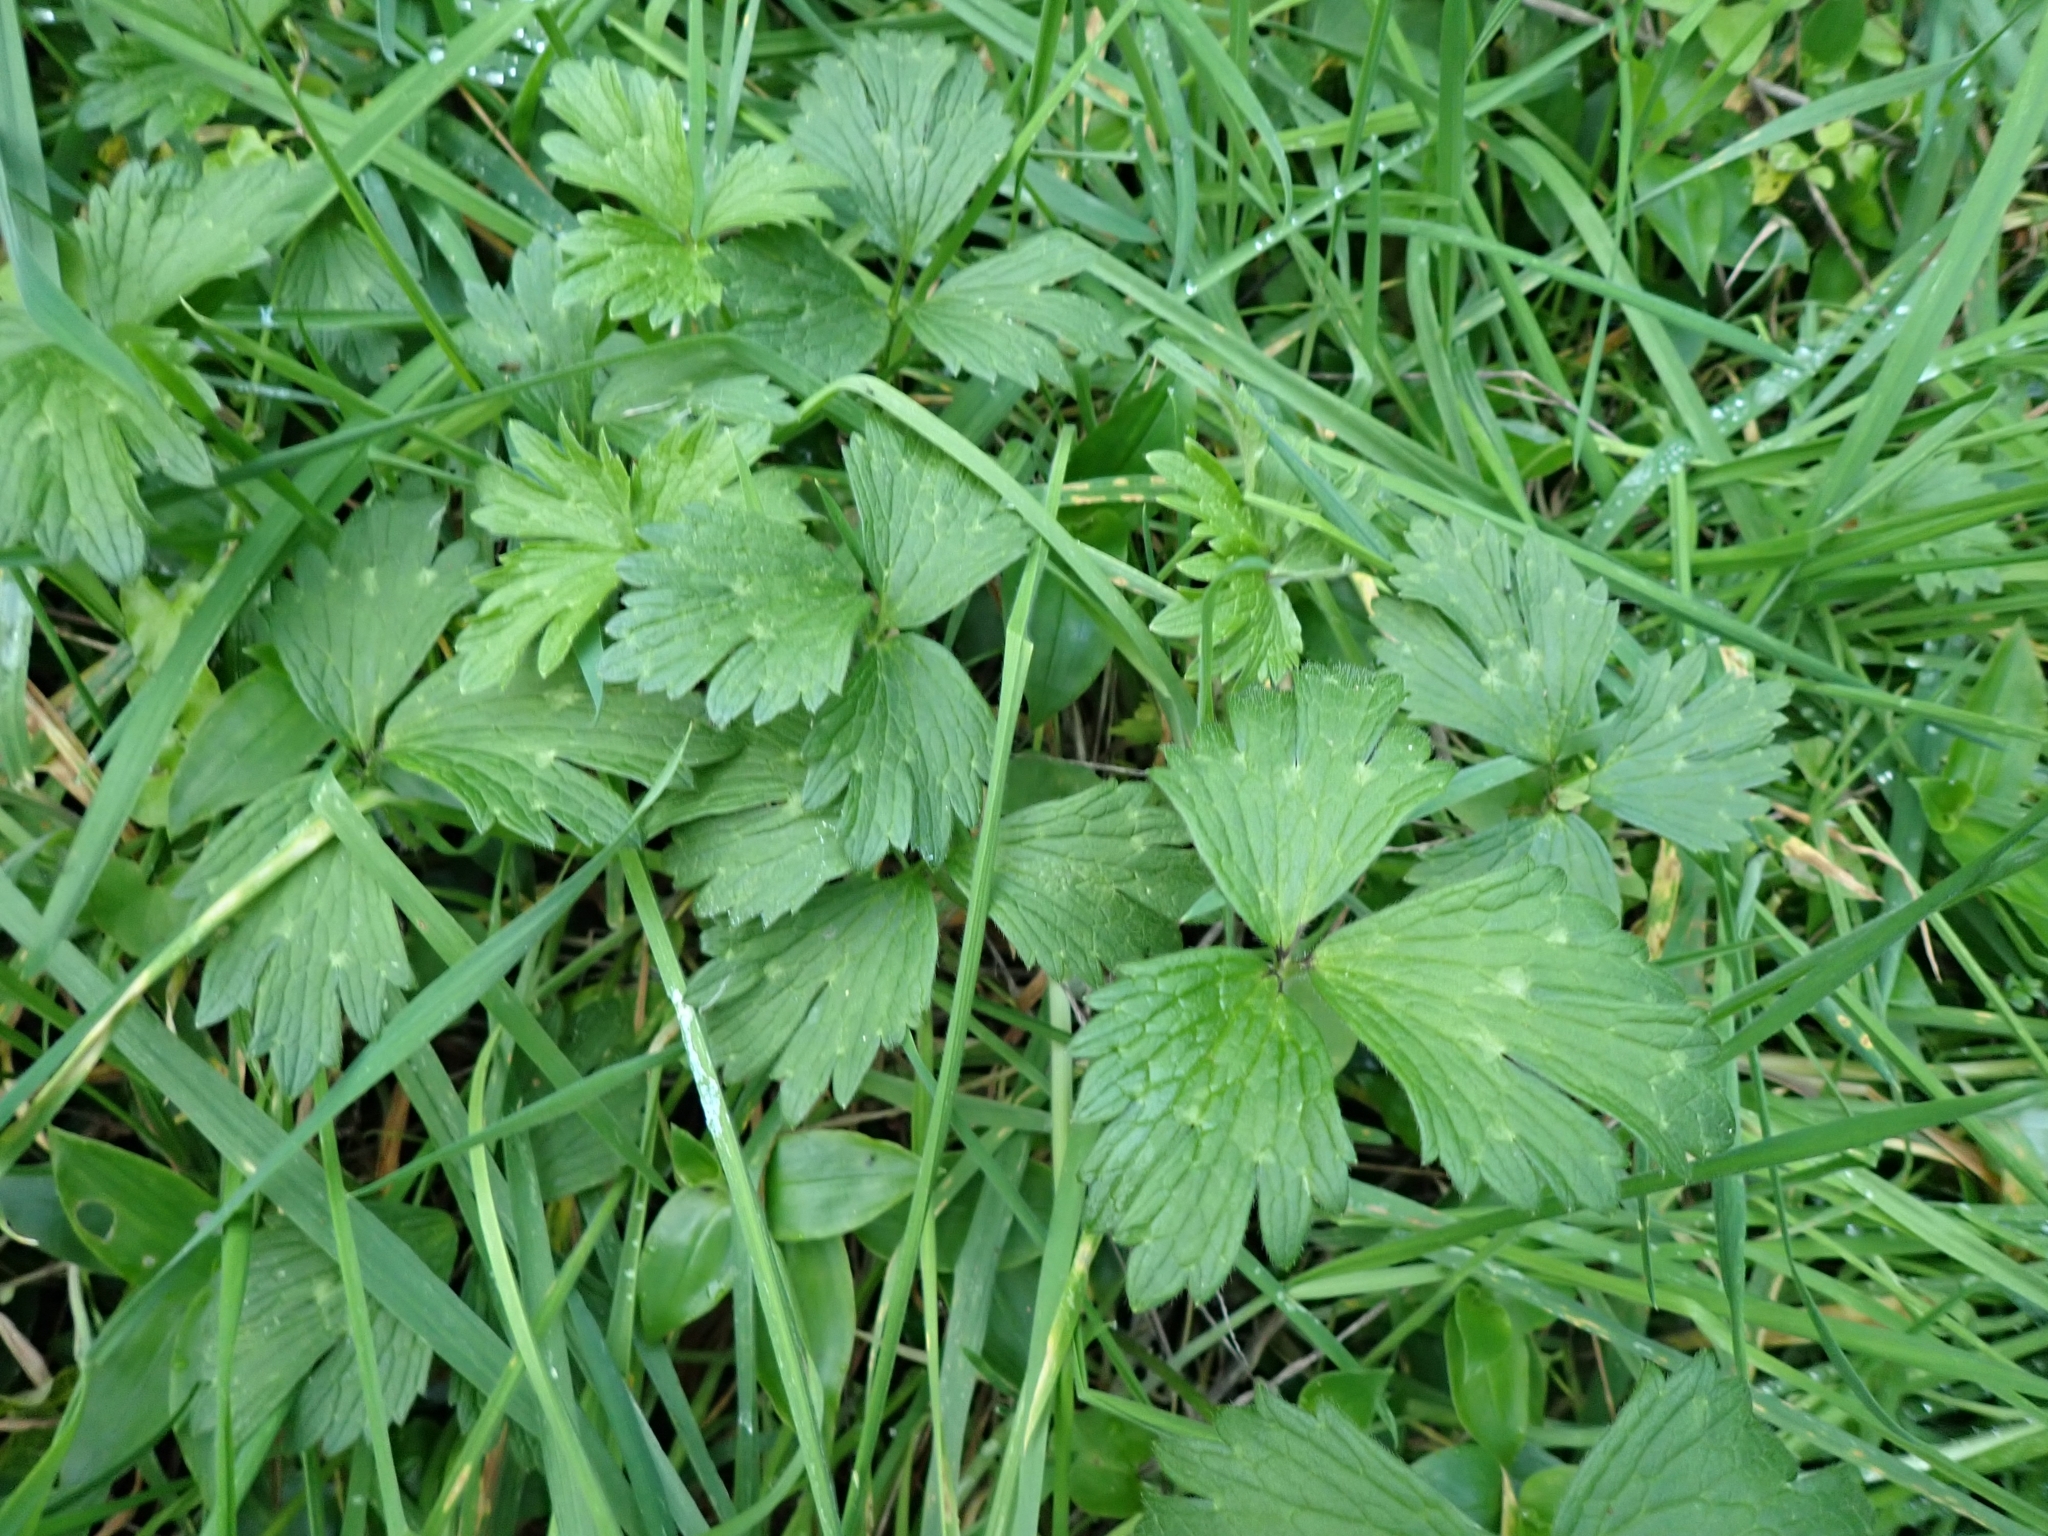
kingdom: Plantae
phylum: Tracheophyta
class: Magnoliopsida
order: Ranunculales
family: Ranunculaceae
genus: Ranunculus
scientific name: Ranunculus repens
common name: Creeping buttercup
